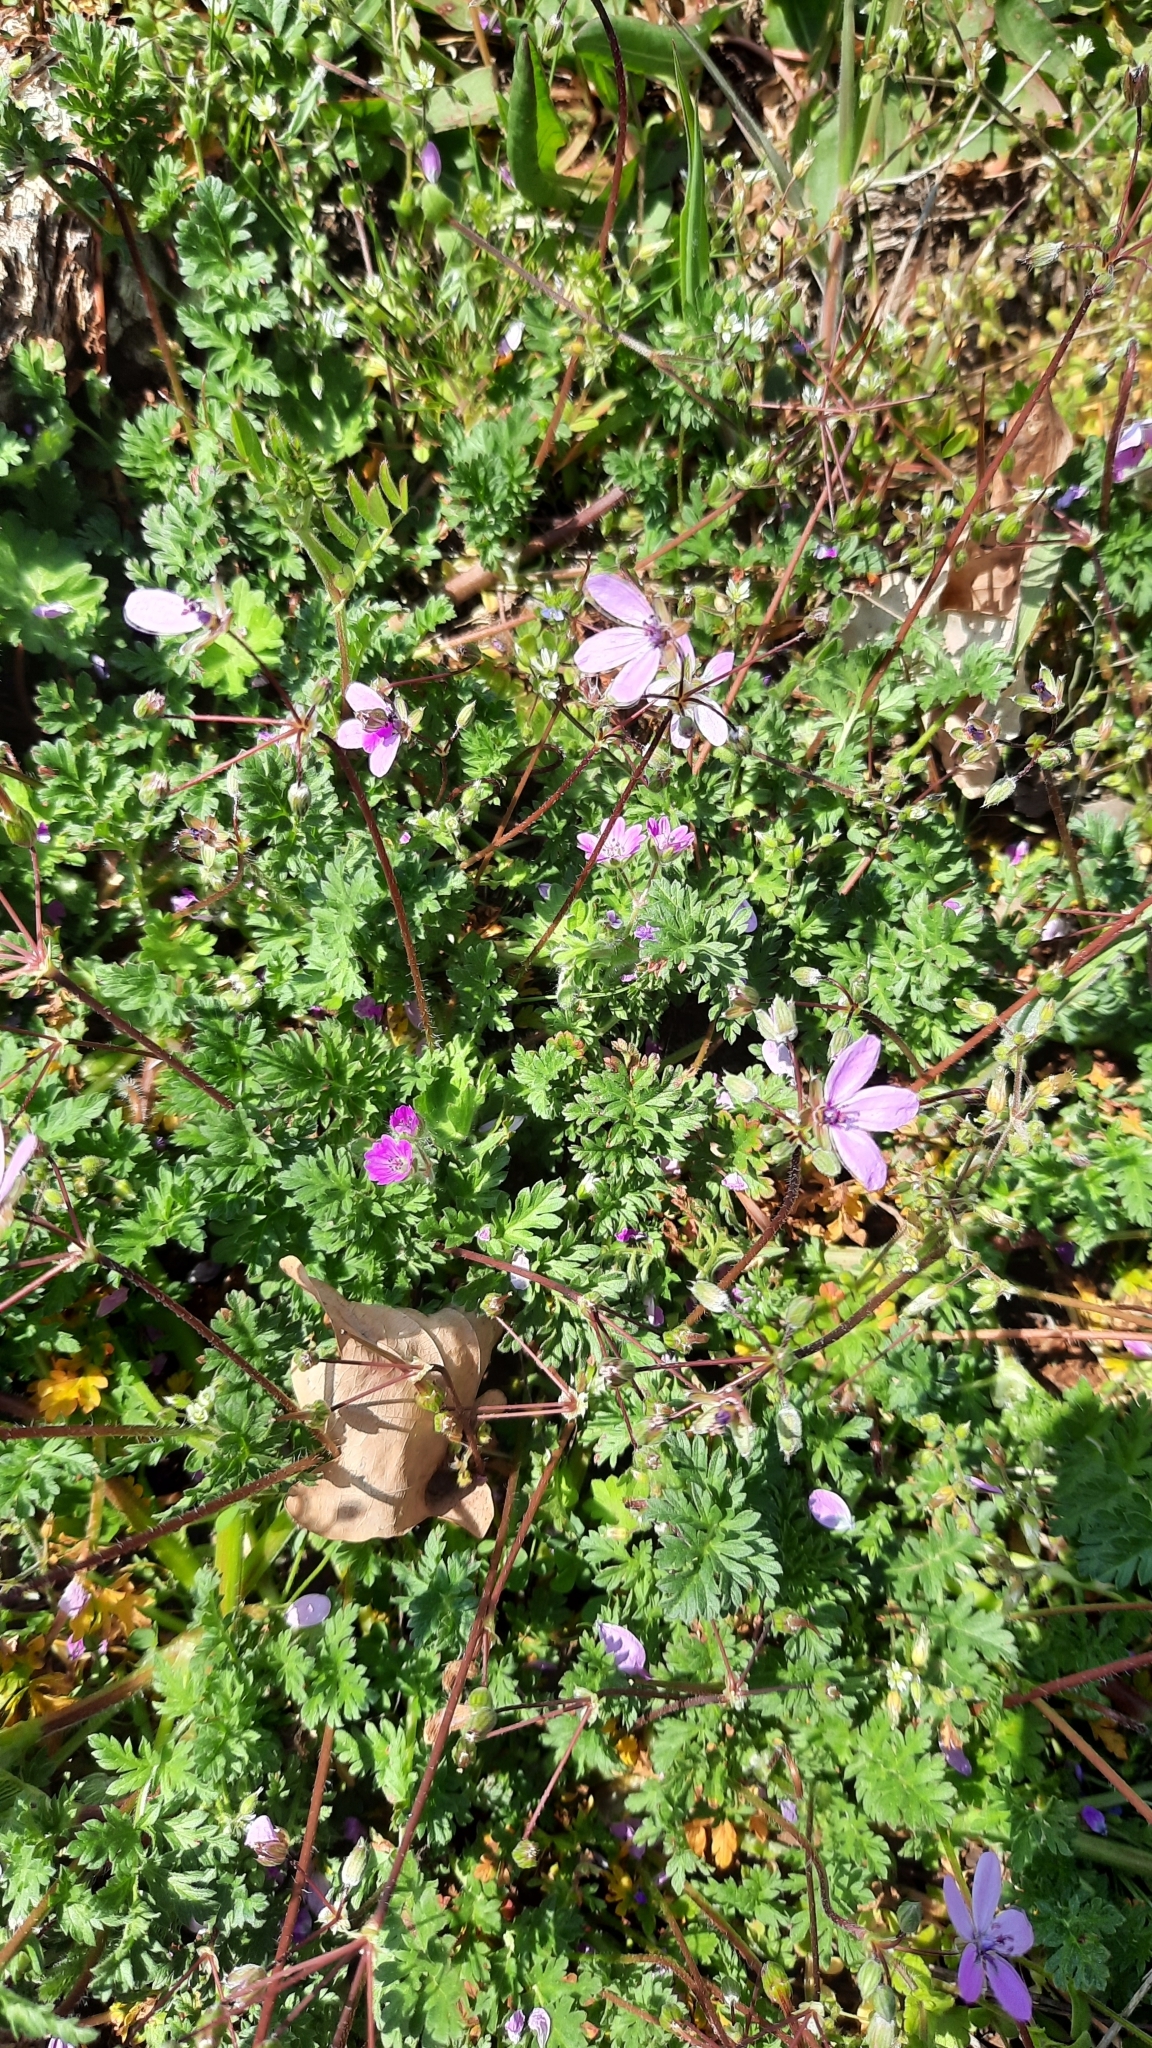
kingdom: Plantae
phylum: Tracheophyta
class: Magnoliopsida
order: Geraniales
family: Geraniaceae
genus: Erodium
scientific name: Erodium cicutarium
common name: Common stork's-bill
